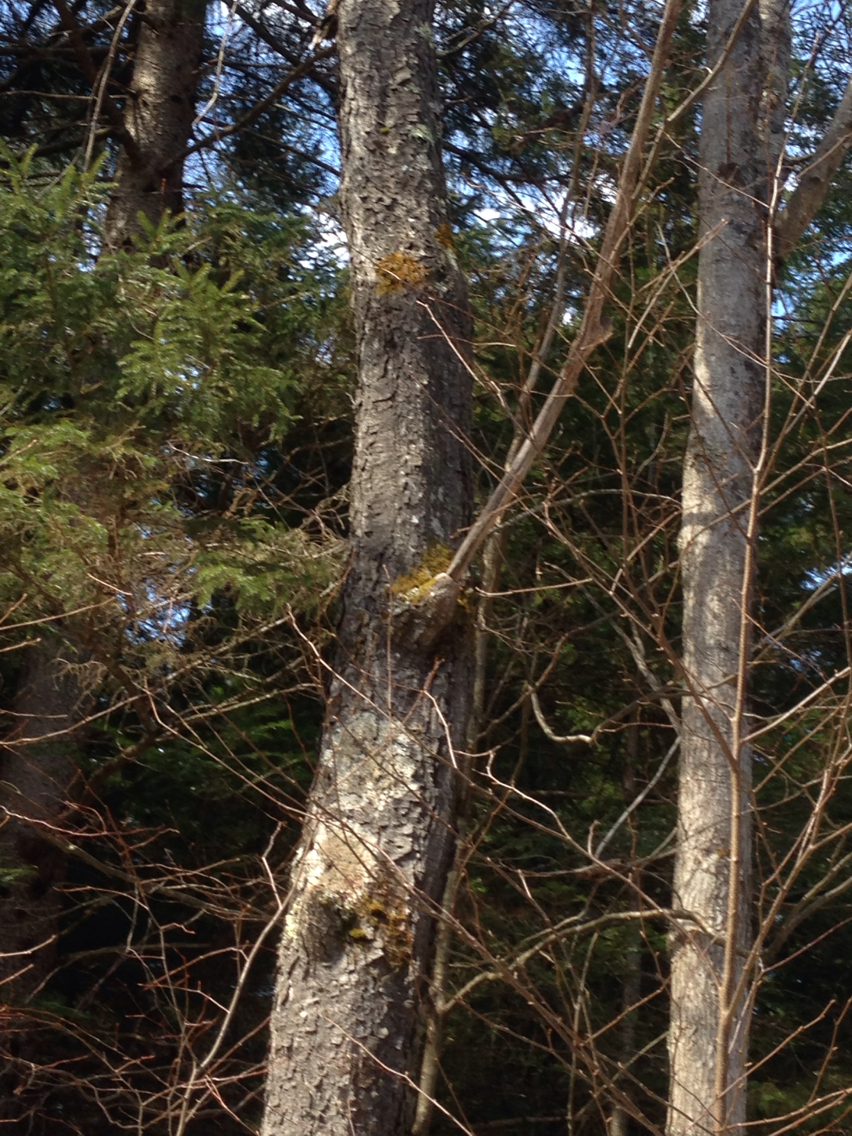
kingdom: Plantae
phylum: Tracheophyta
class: Magnoliopsida
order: Rosales
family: Rosaceae
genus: Prunus
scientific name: Prunus serotina
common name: Black cherry
